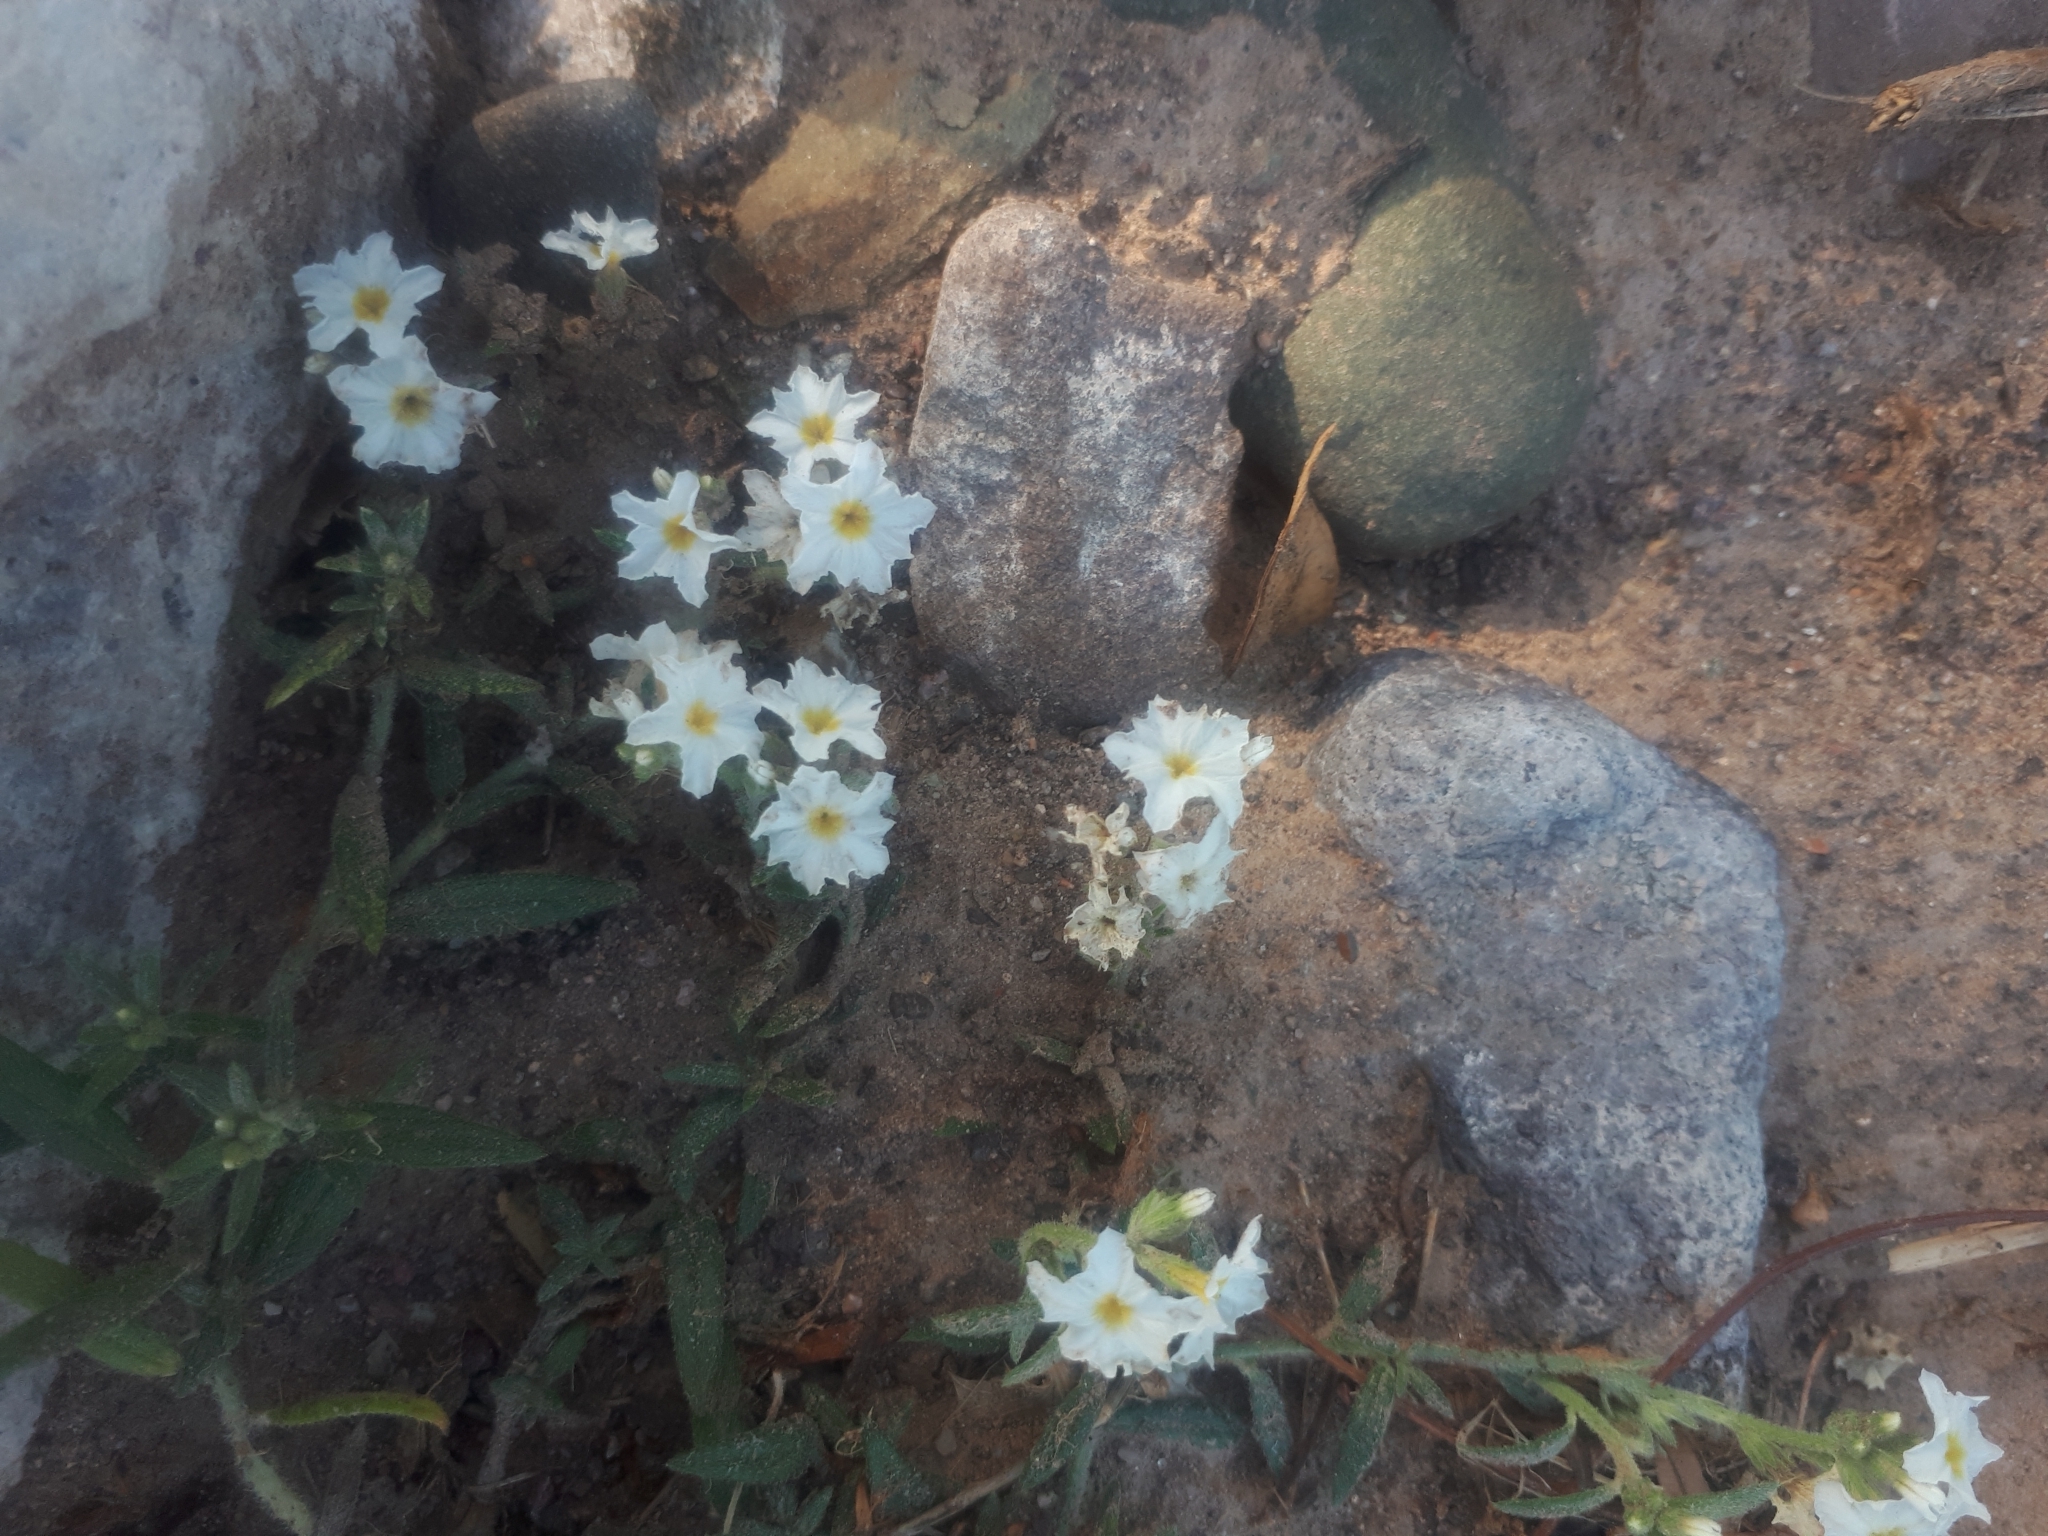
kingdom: Plantae
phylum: Tracheophyta
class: Magnoliopsida
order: Boraginales
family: Heliotropiaceae
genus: Euploca
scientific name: Euploca mendocina
